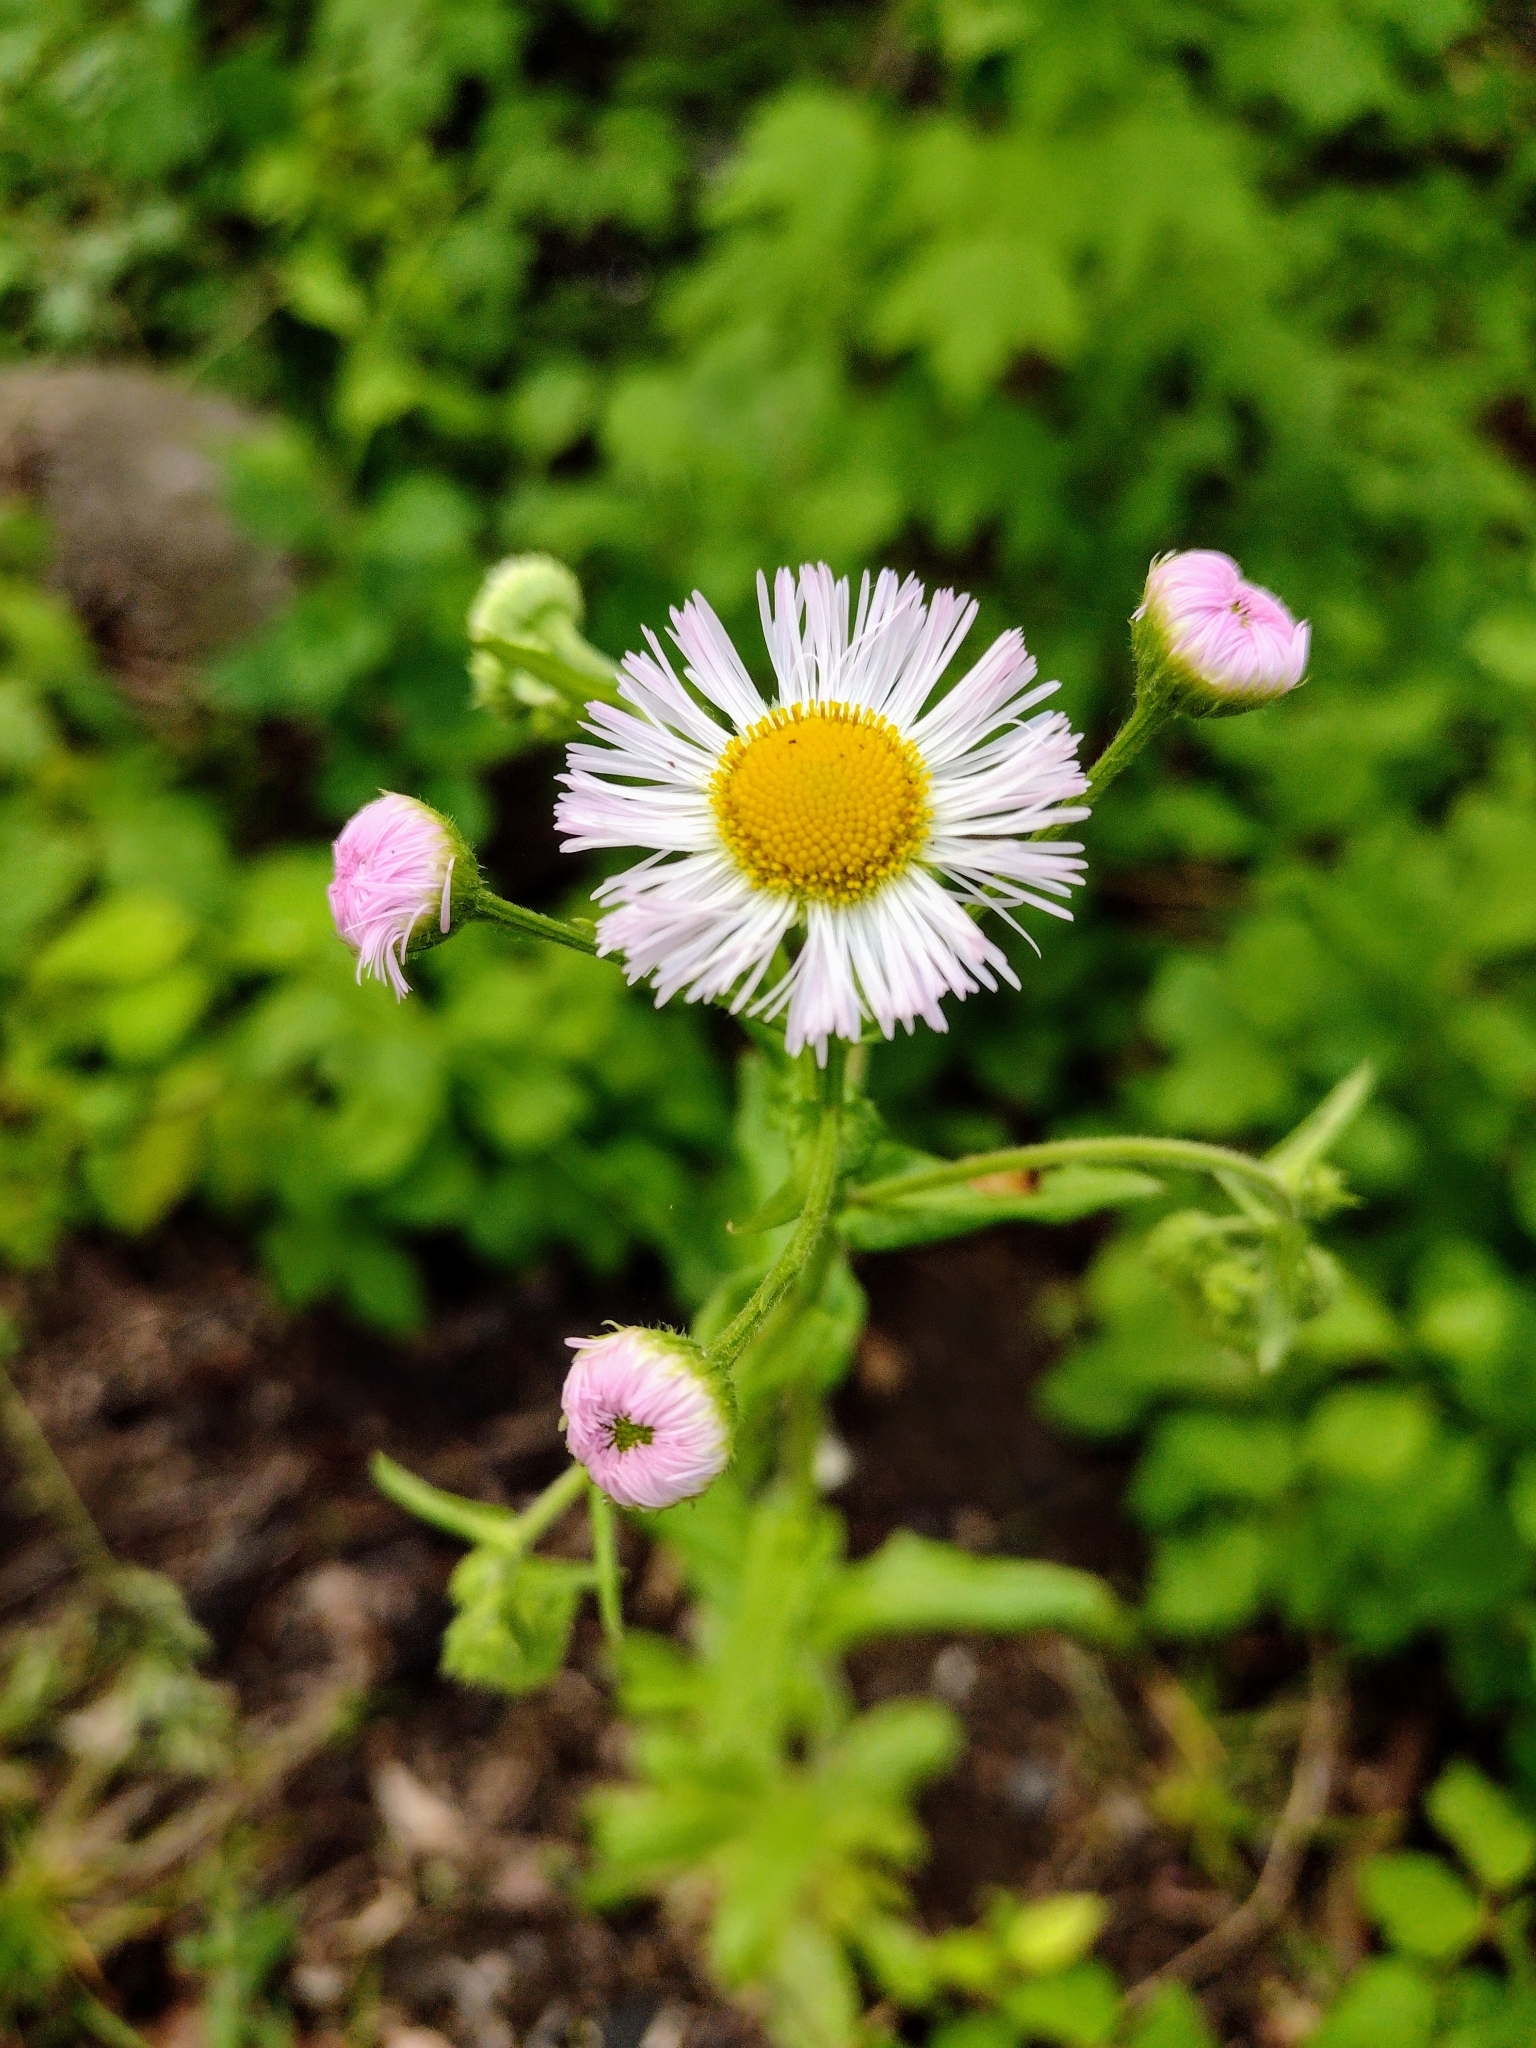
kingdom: Plantae
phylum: Tracheophyta
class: Magnoliopsida
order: Asterales
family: Asteraceae
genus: Erigeron
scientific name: Erigeron philadelphicus
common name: Robin's-plantain
